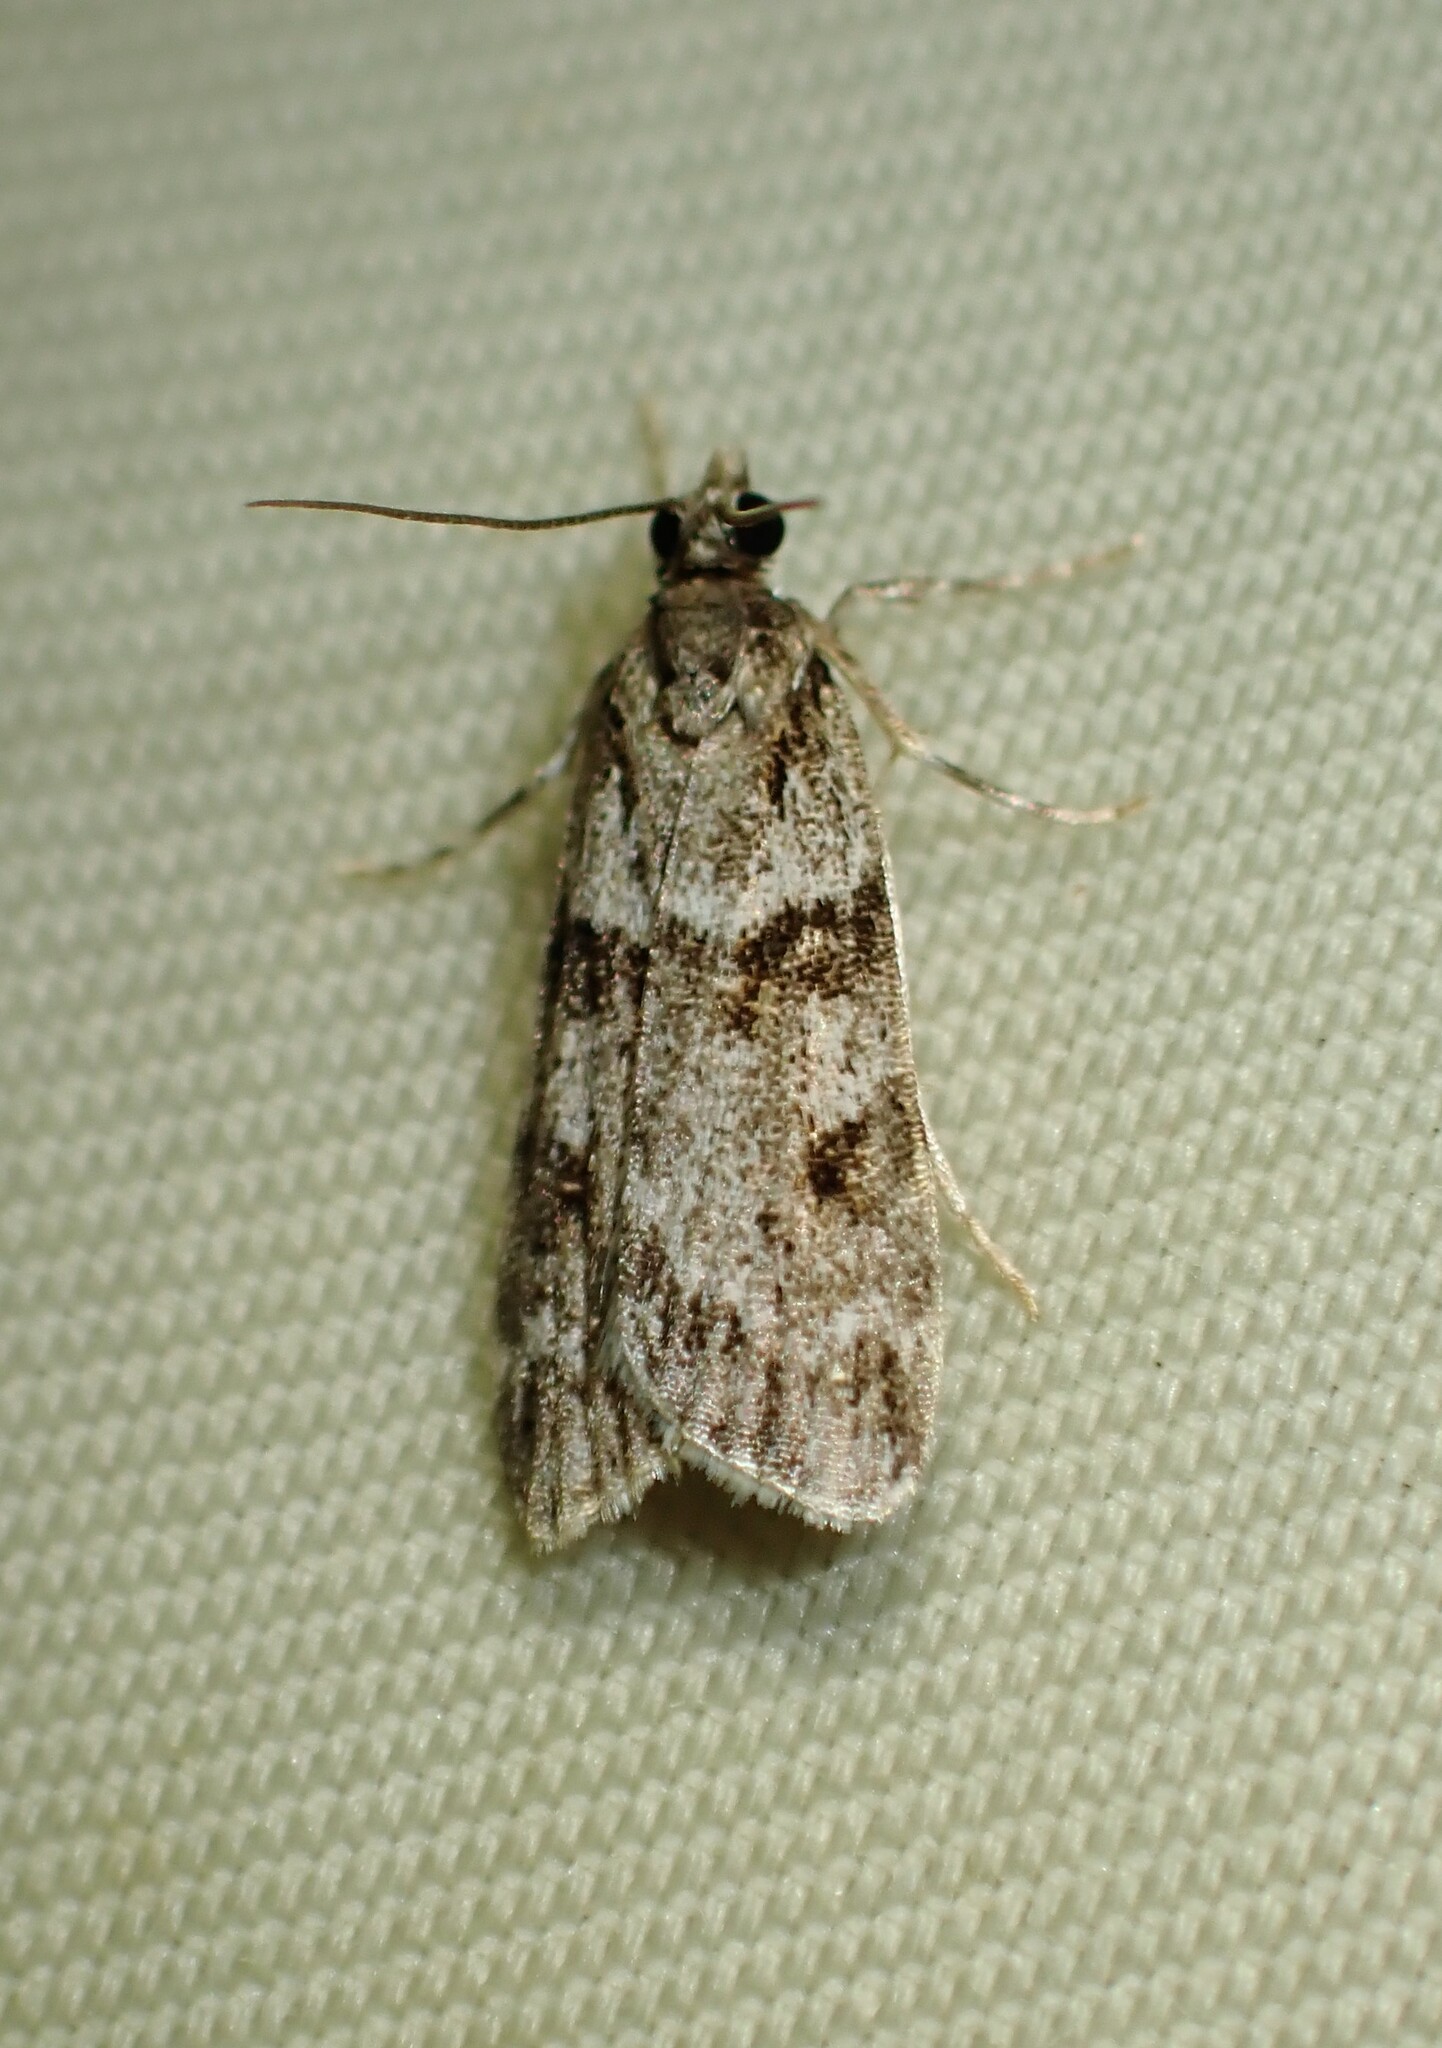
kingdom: Animalia
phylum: Arthropoda
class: Insecta
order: Lepidoptera
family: Crambidae
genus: Scoparia
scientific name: Scoparia biplagialis
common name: Double-striped scoparia moth
